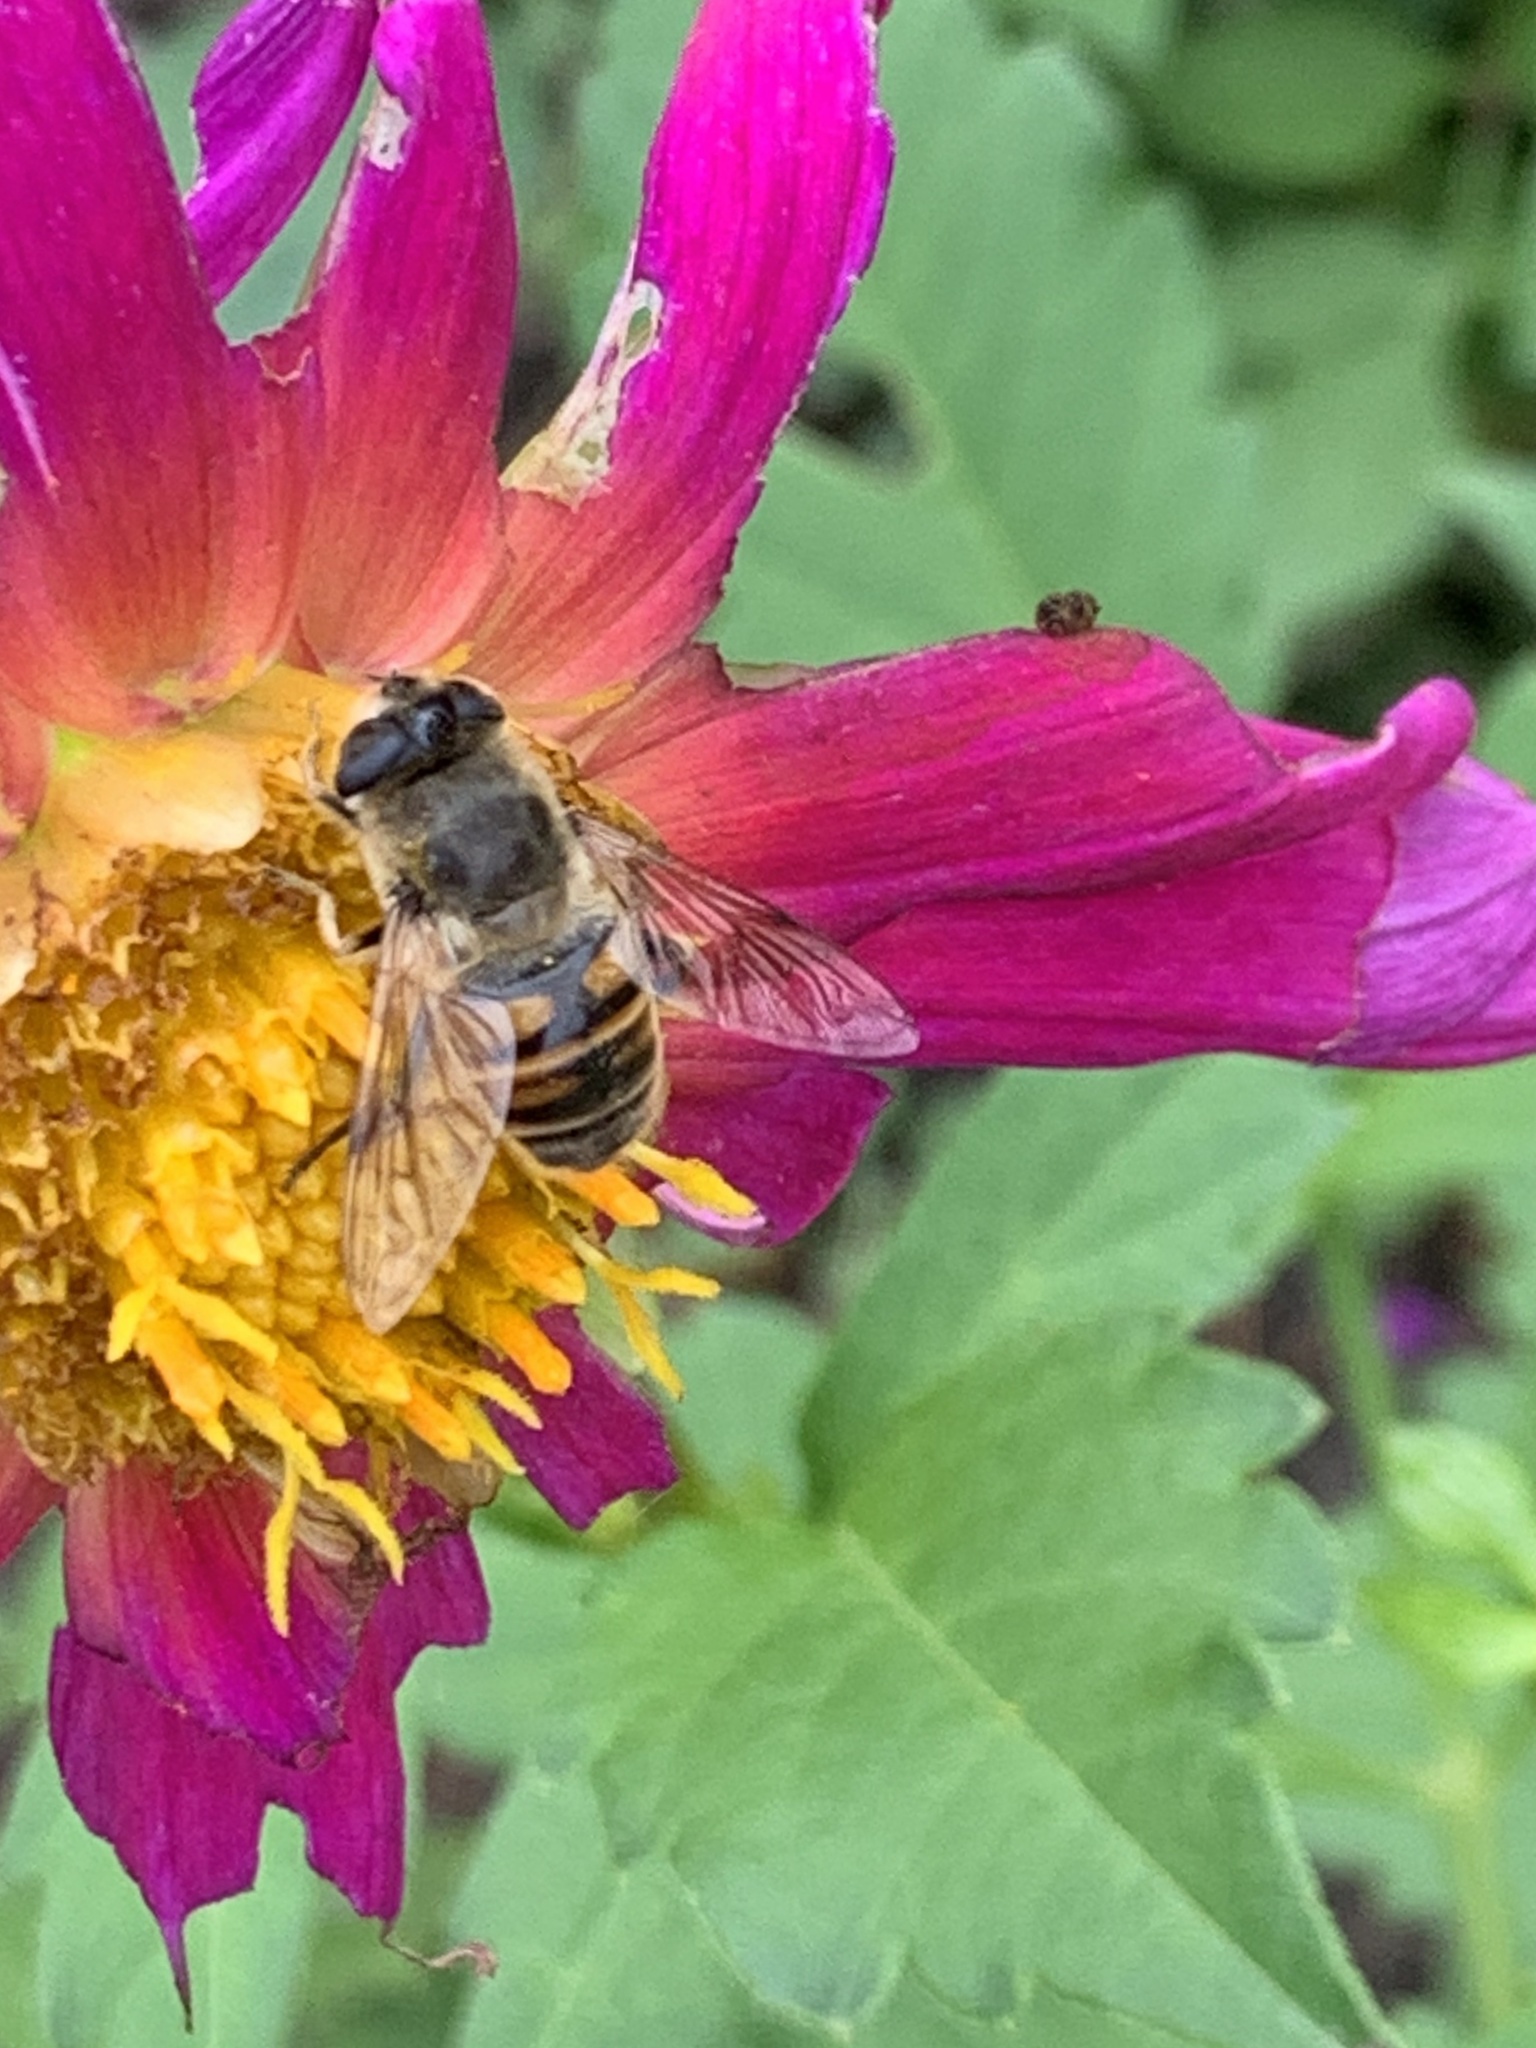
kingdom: Animalia
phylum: Arthropoda
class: Insecta
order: Diptera
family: Syrphidae
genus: Eristalis
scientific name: Eristalis tenax
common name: Drone fly
